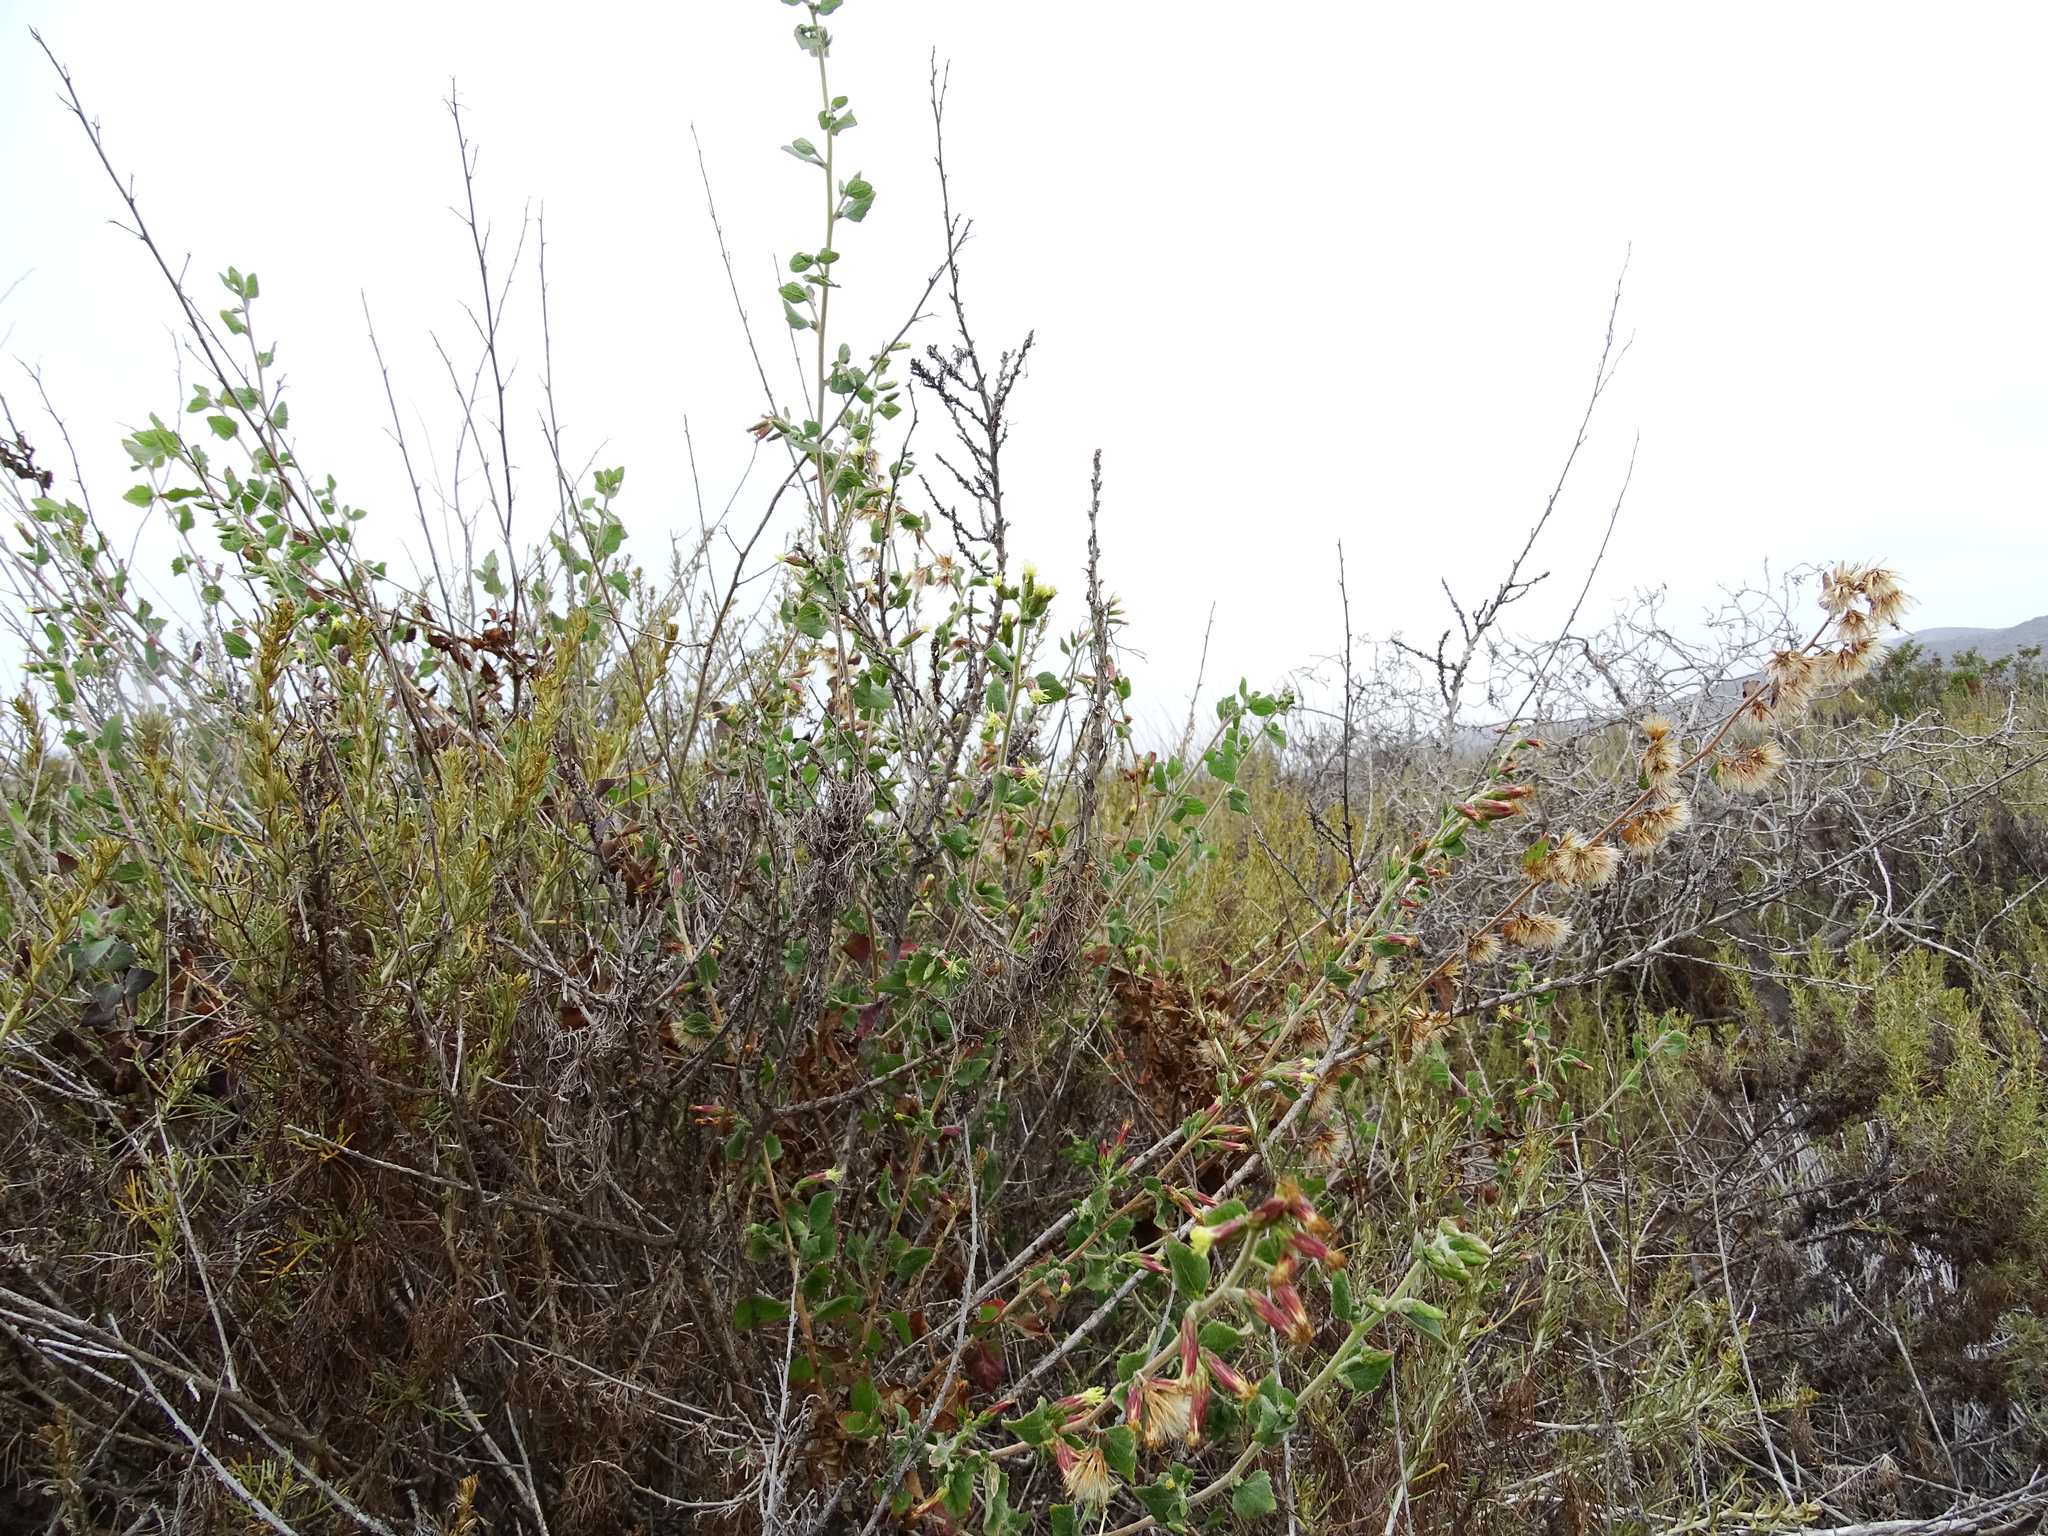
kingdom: Plantae
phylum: Tracheophyta
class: Magnoliopsida
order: Asterales
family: Asteraceae
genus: Brickellia
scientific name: Brickellia californica
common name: California brickellbush
